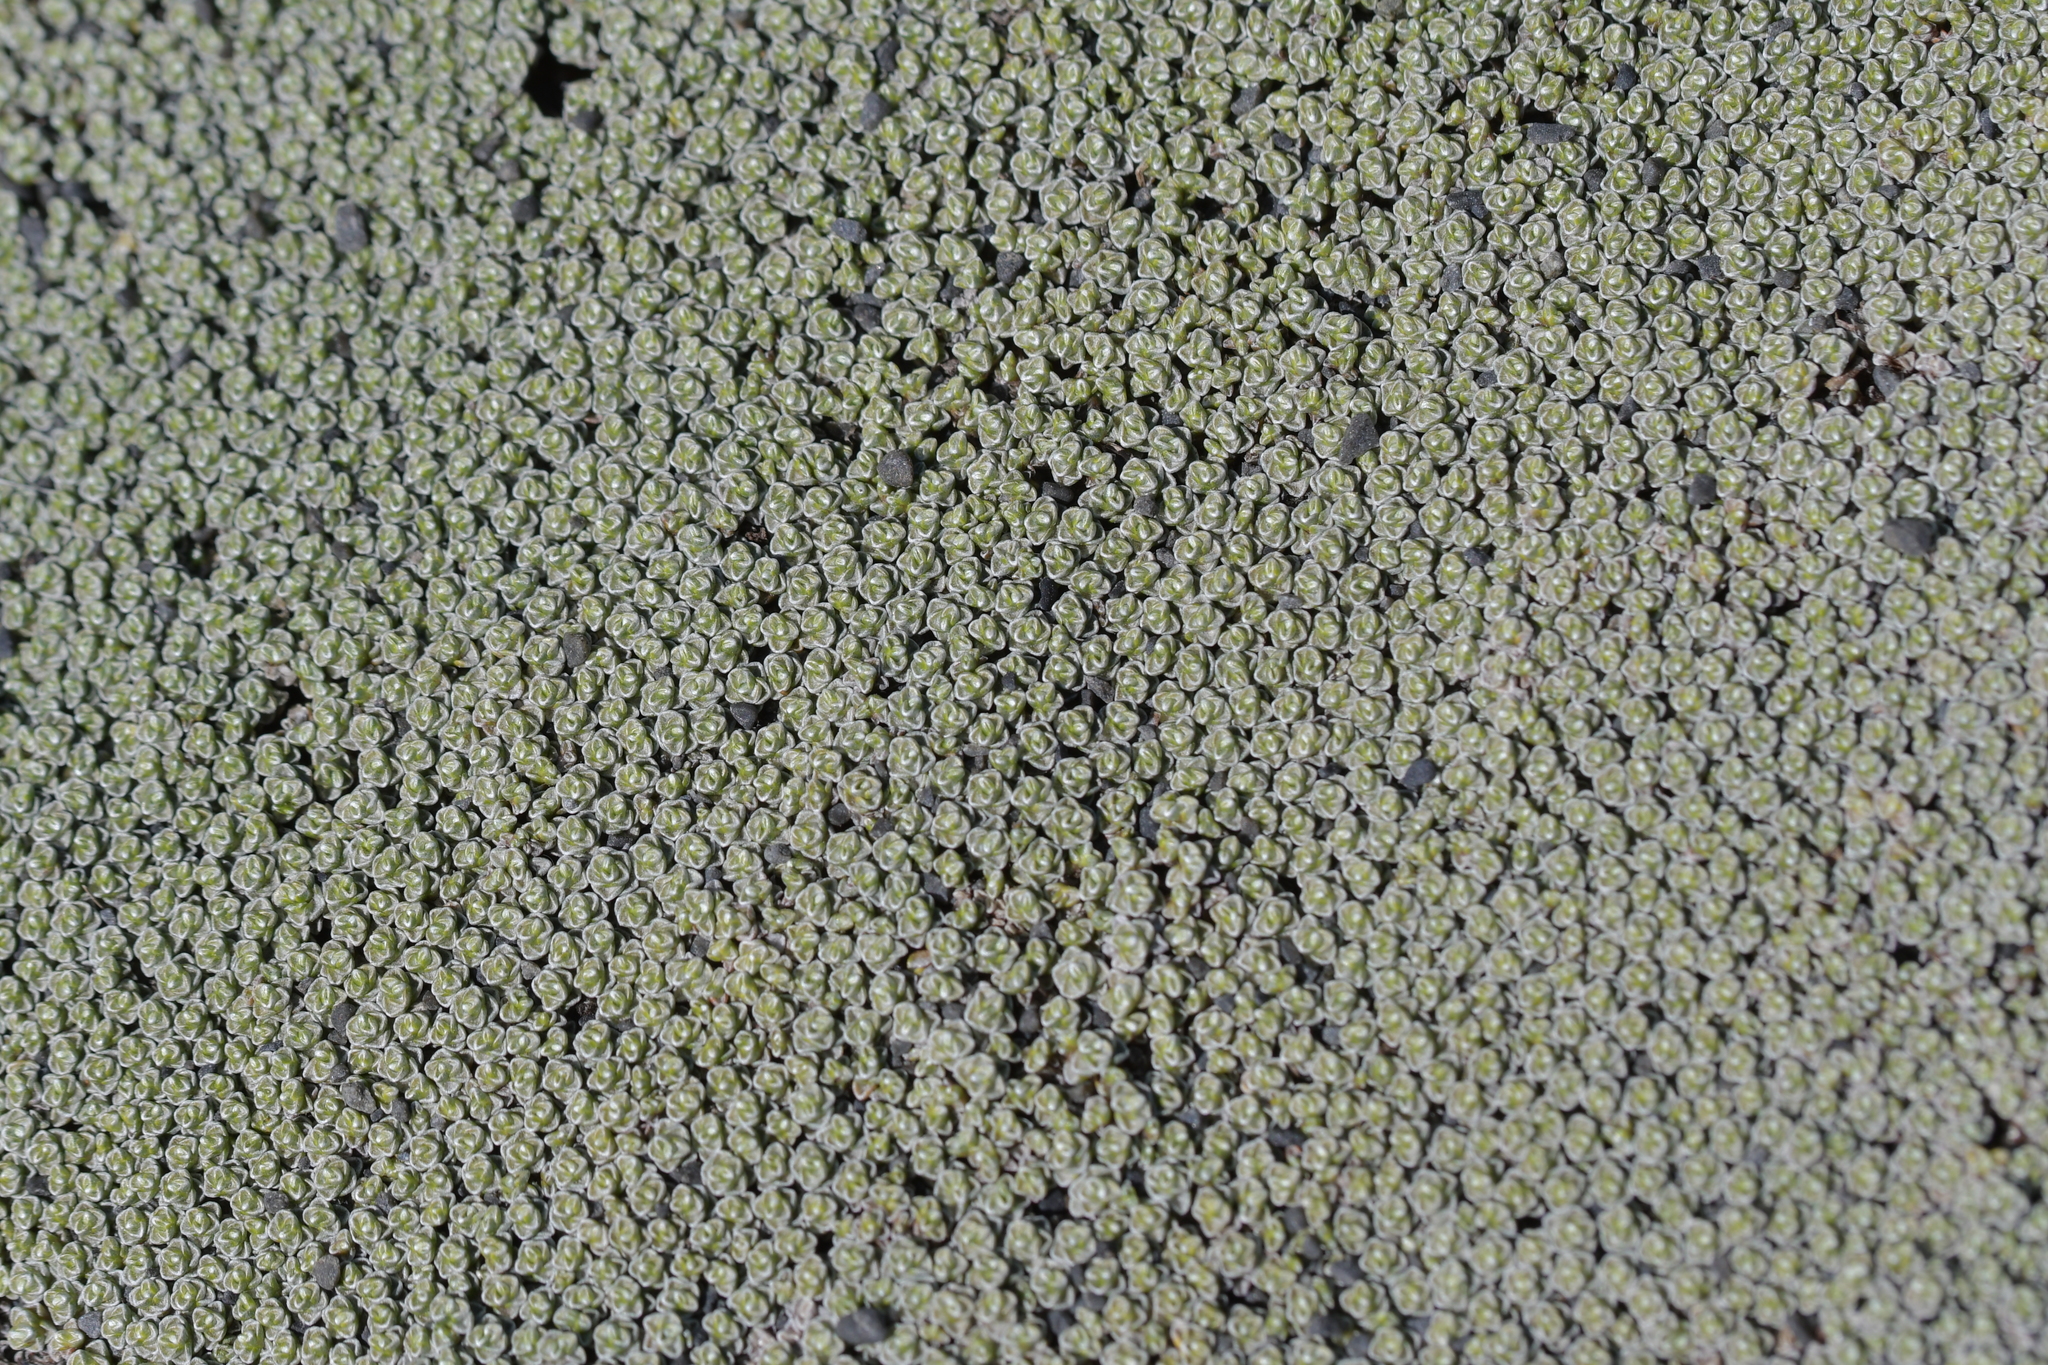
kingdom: Plantae
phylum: Tracheophyta
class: Magnoliopsida
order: Asterales
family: Asteraceae
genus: Raoulia
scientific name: Raoulia australis
